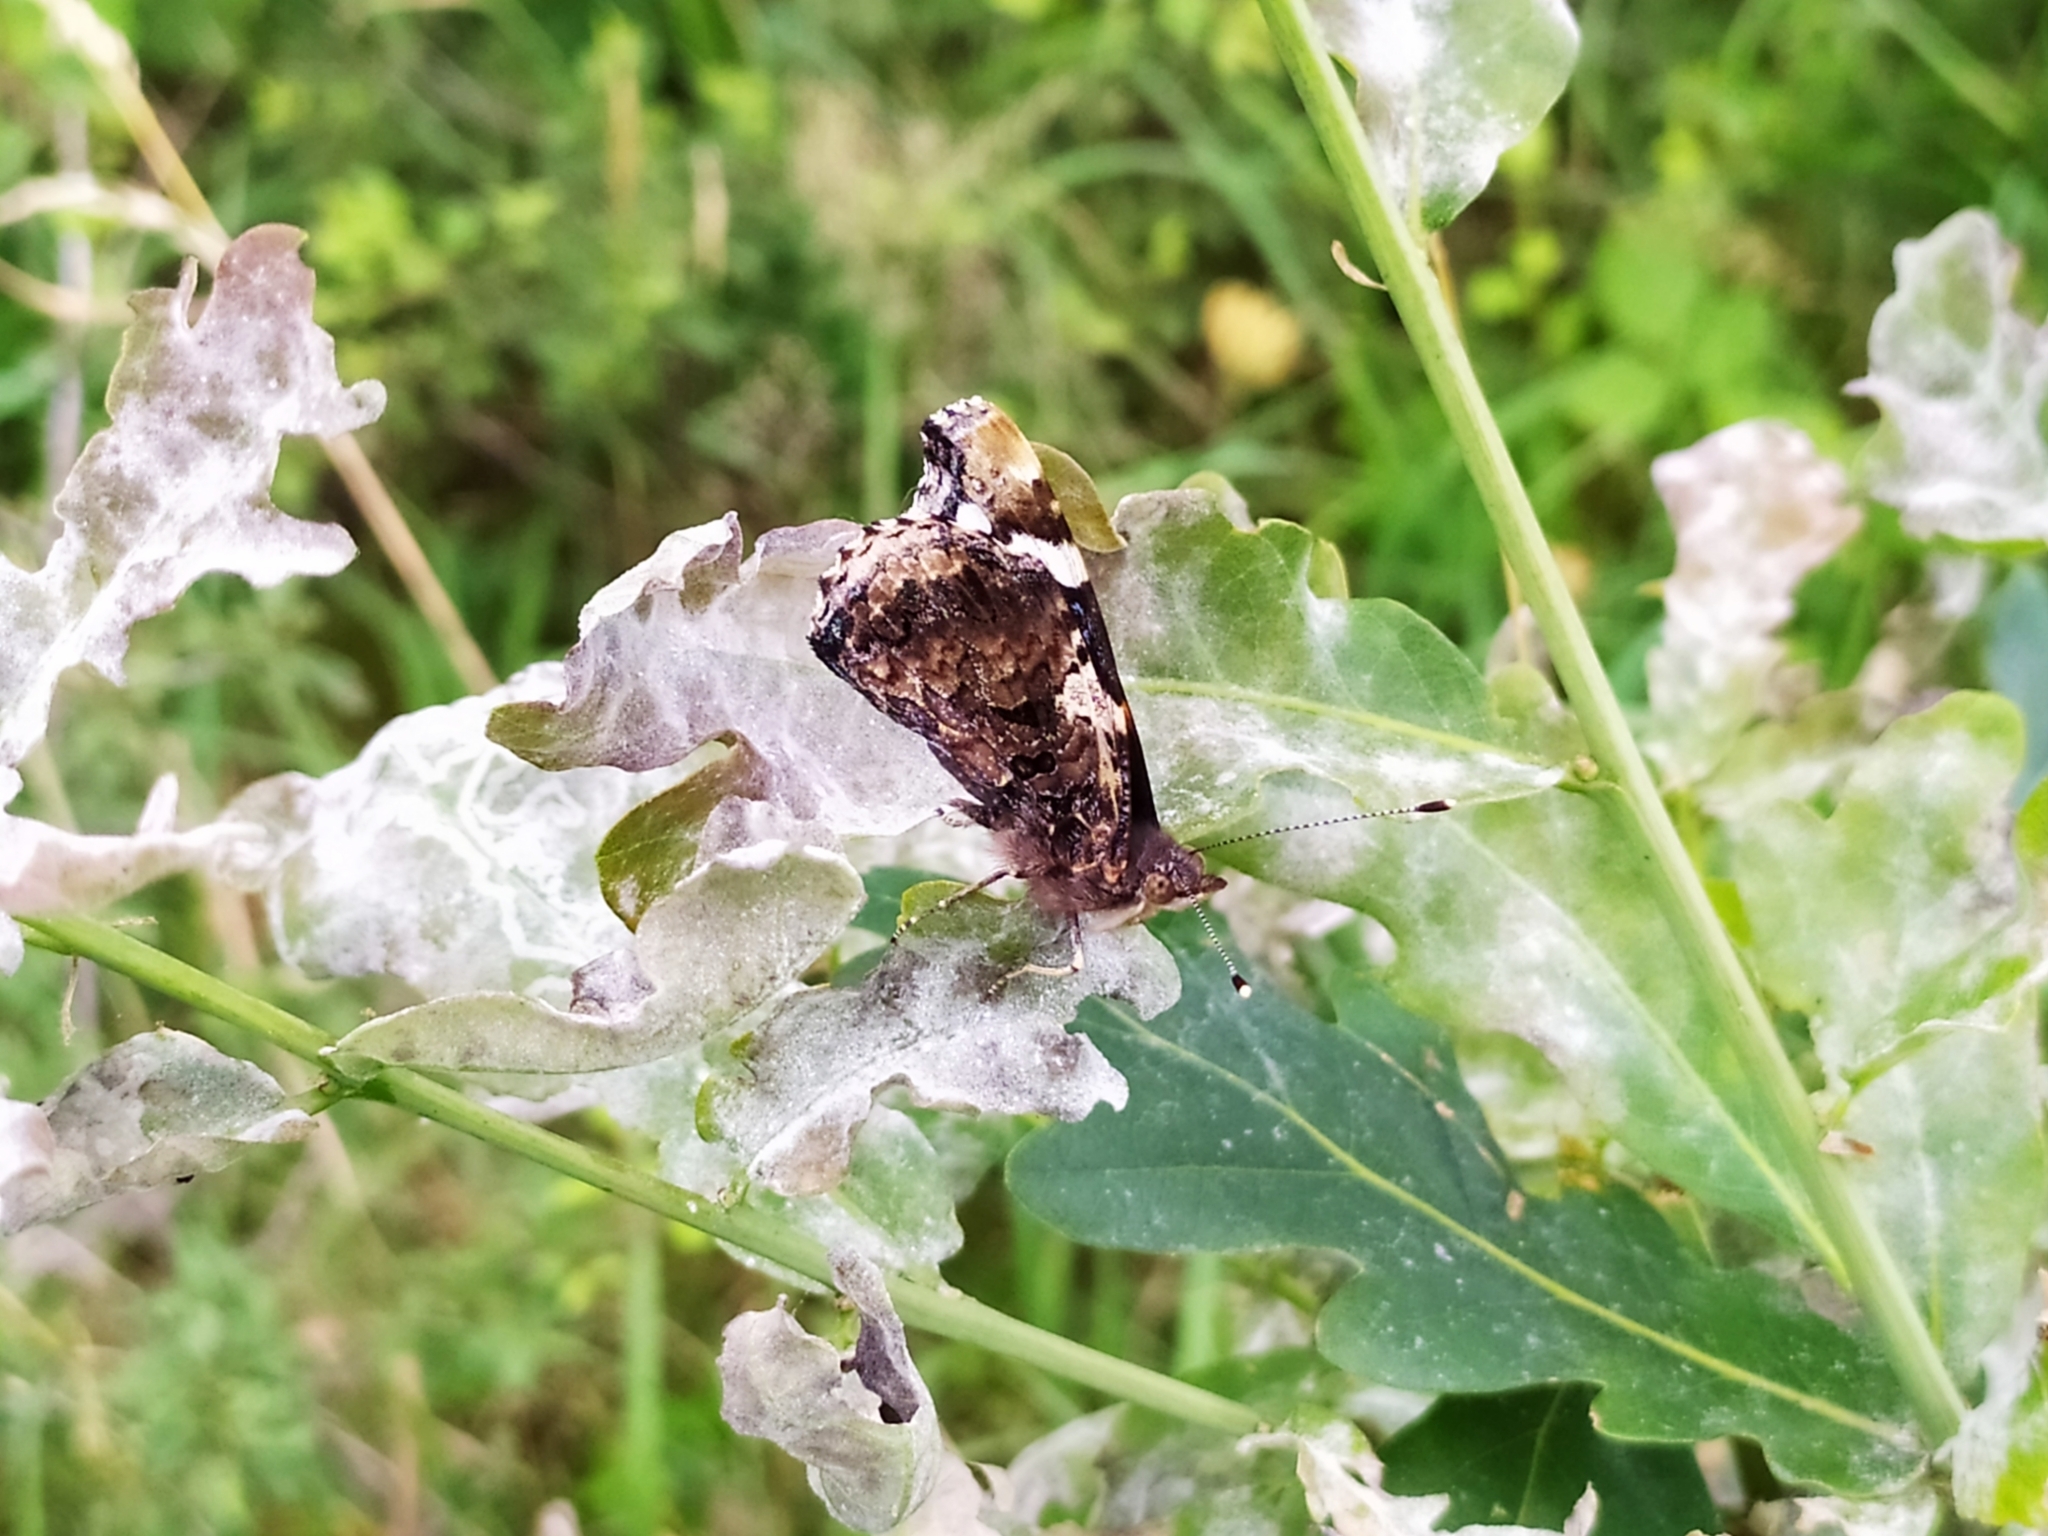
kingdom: Animalia
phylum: Arthropoda
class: Insecta
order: Lepidoptera
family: Nymphalidae
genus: Vanessa
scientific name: Vanessa atalanta
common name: Red admiral
